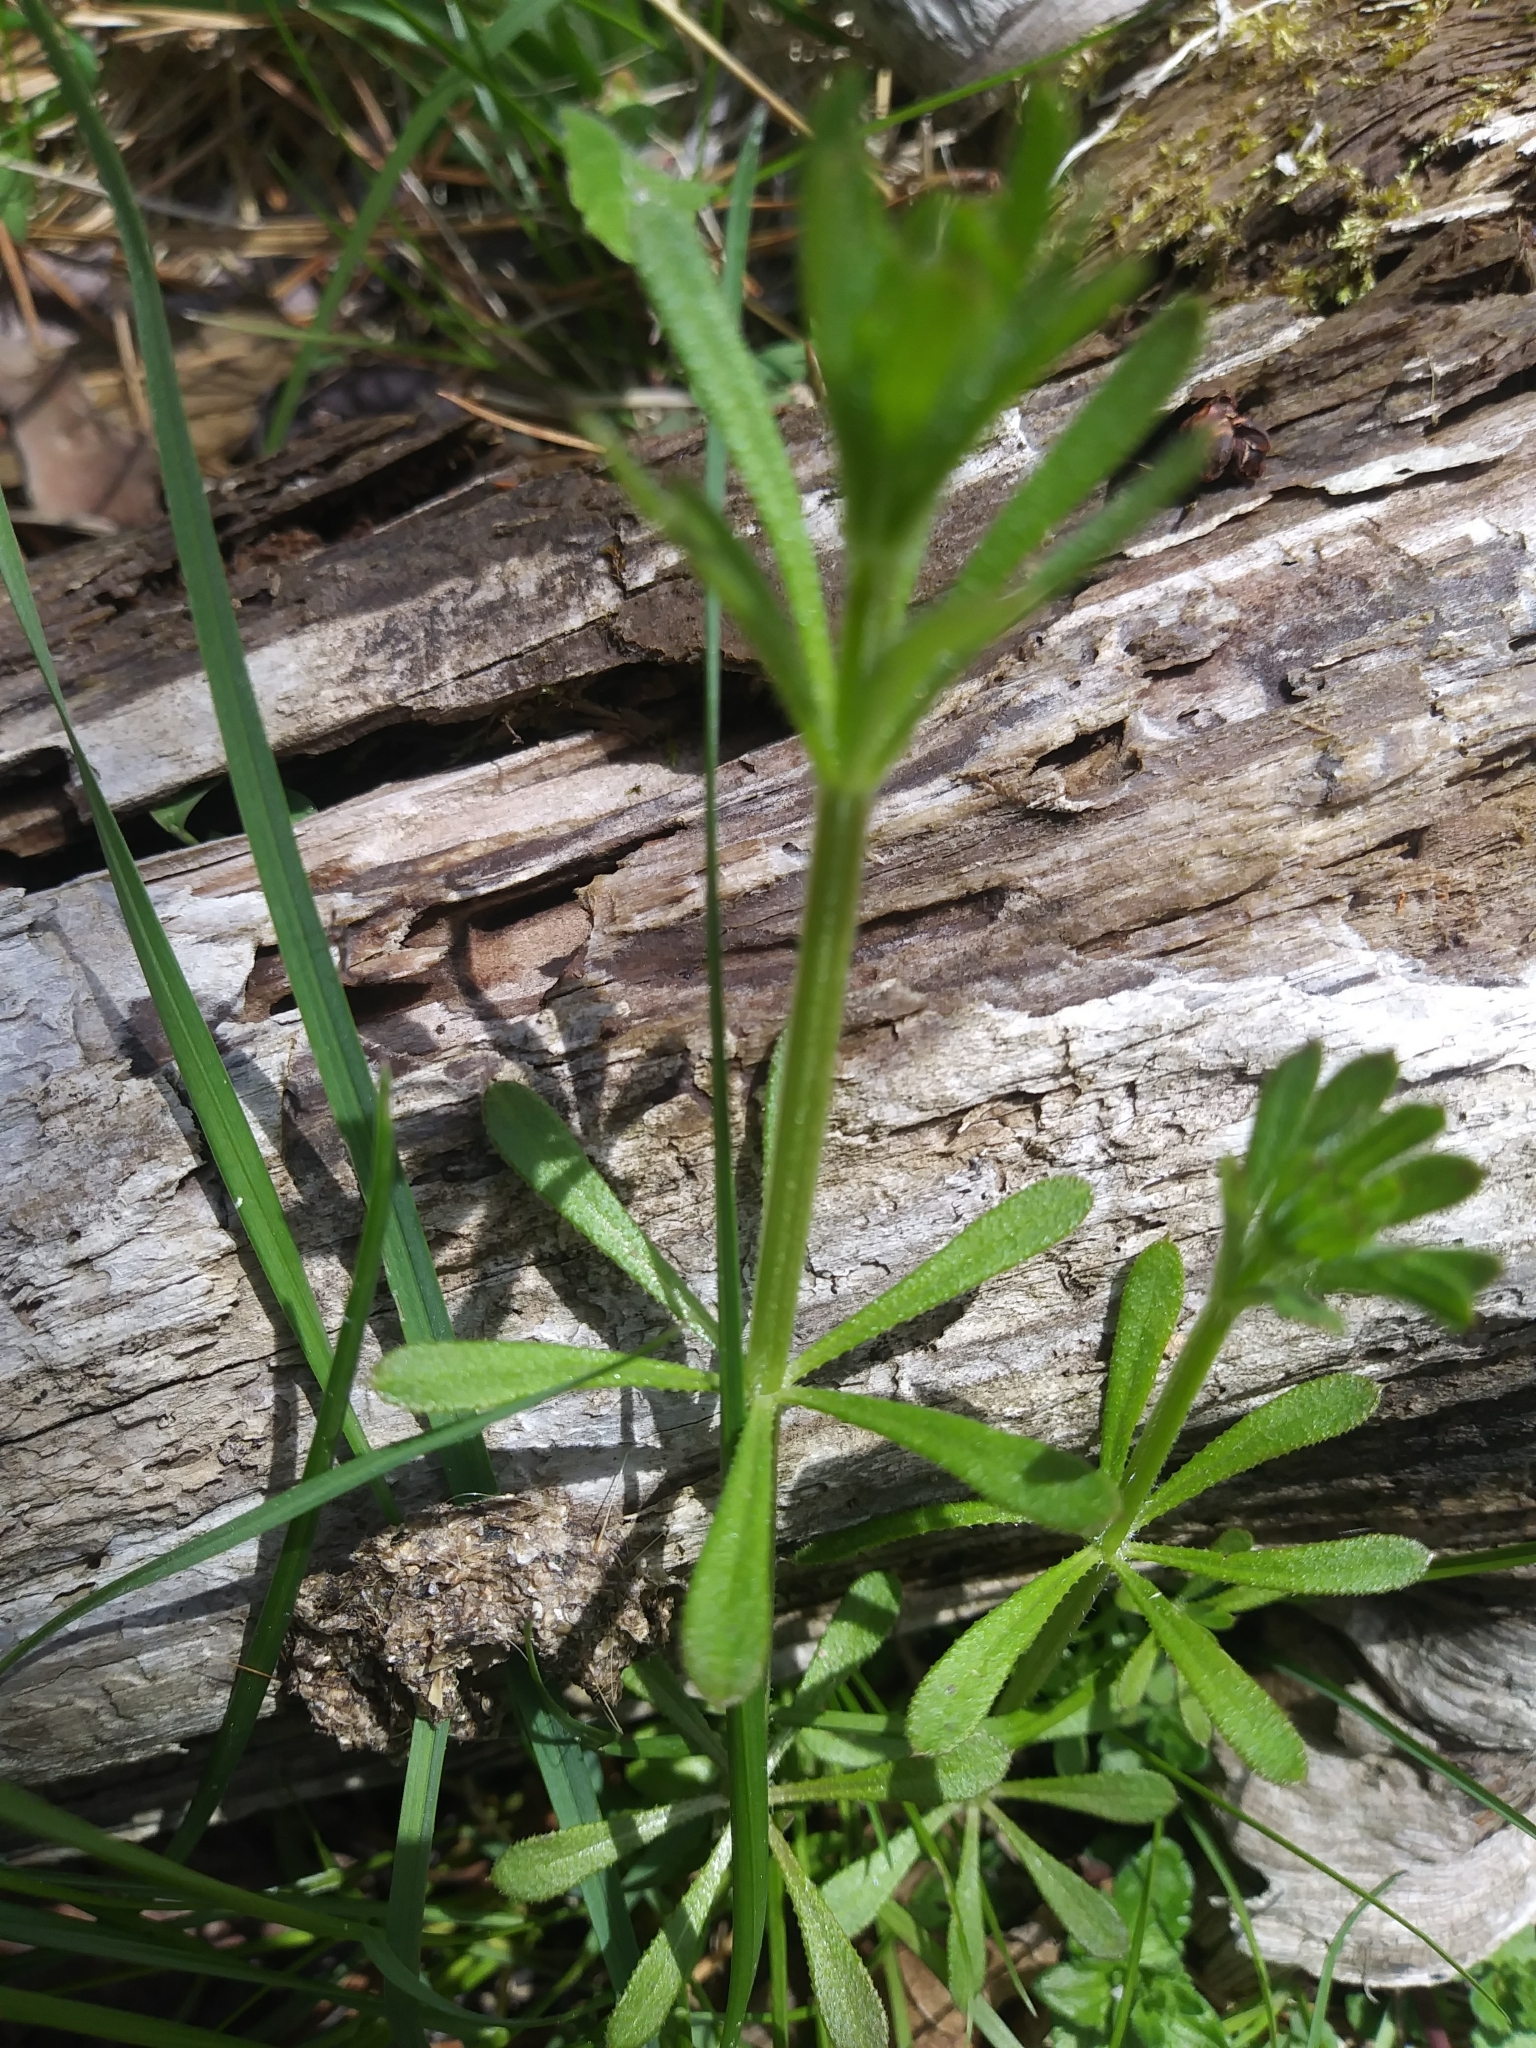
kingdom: Plantae
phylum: Tracheophyta
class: Magnoliopsida
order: Gentianales
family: Rubiaceae
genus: Galium
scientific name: Galium aparine
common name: Cleavers
